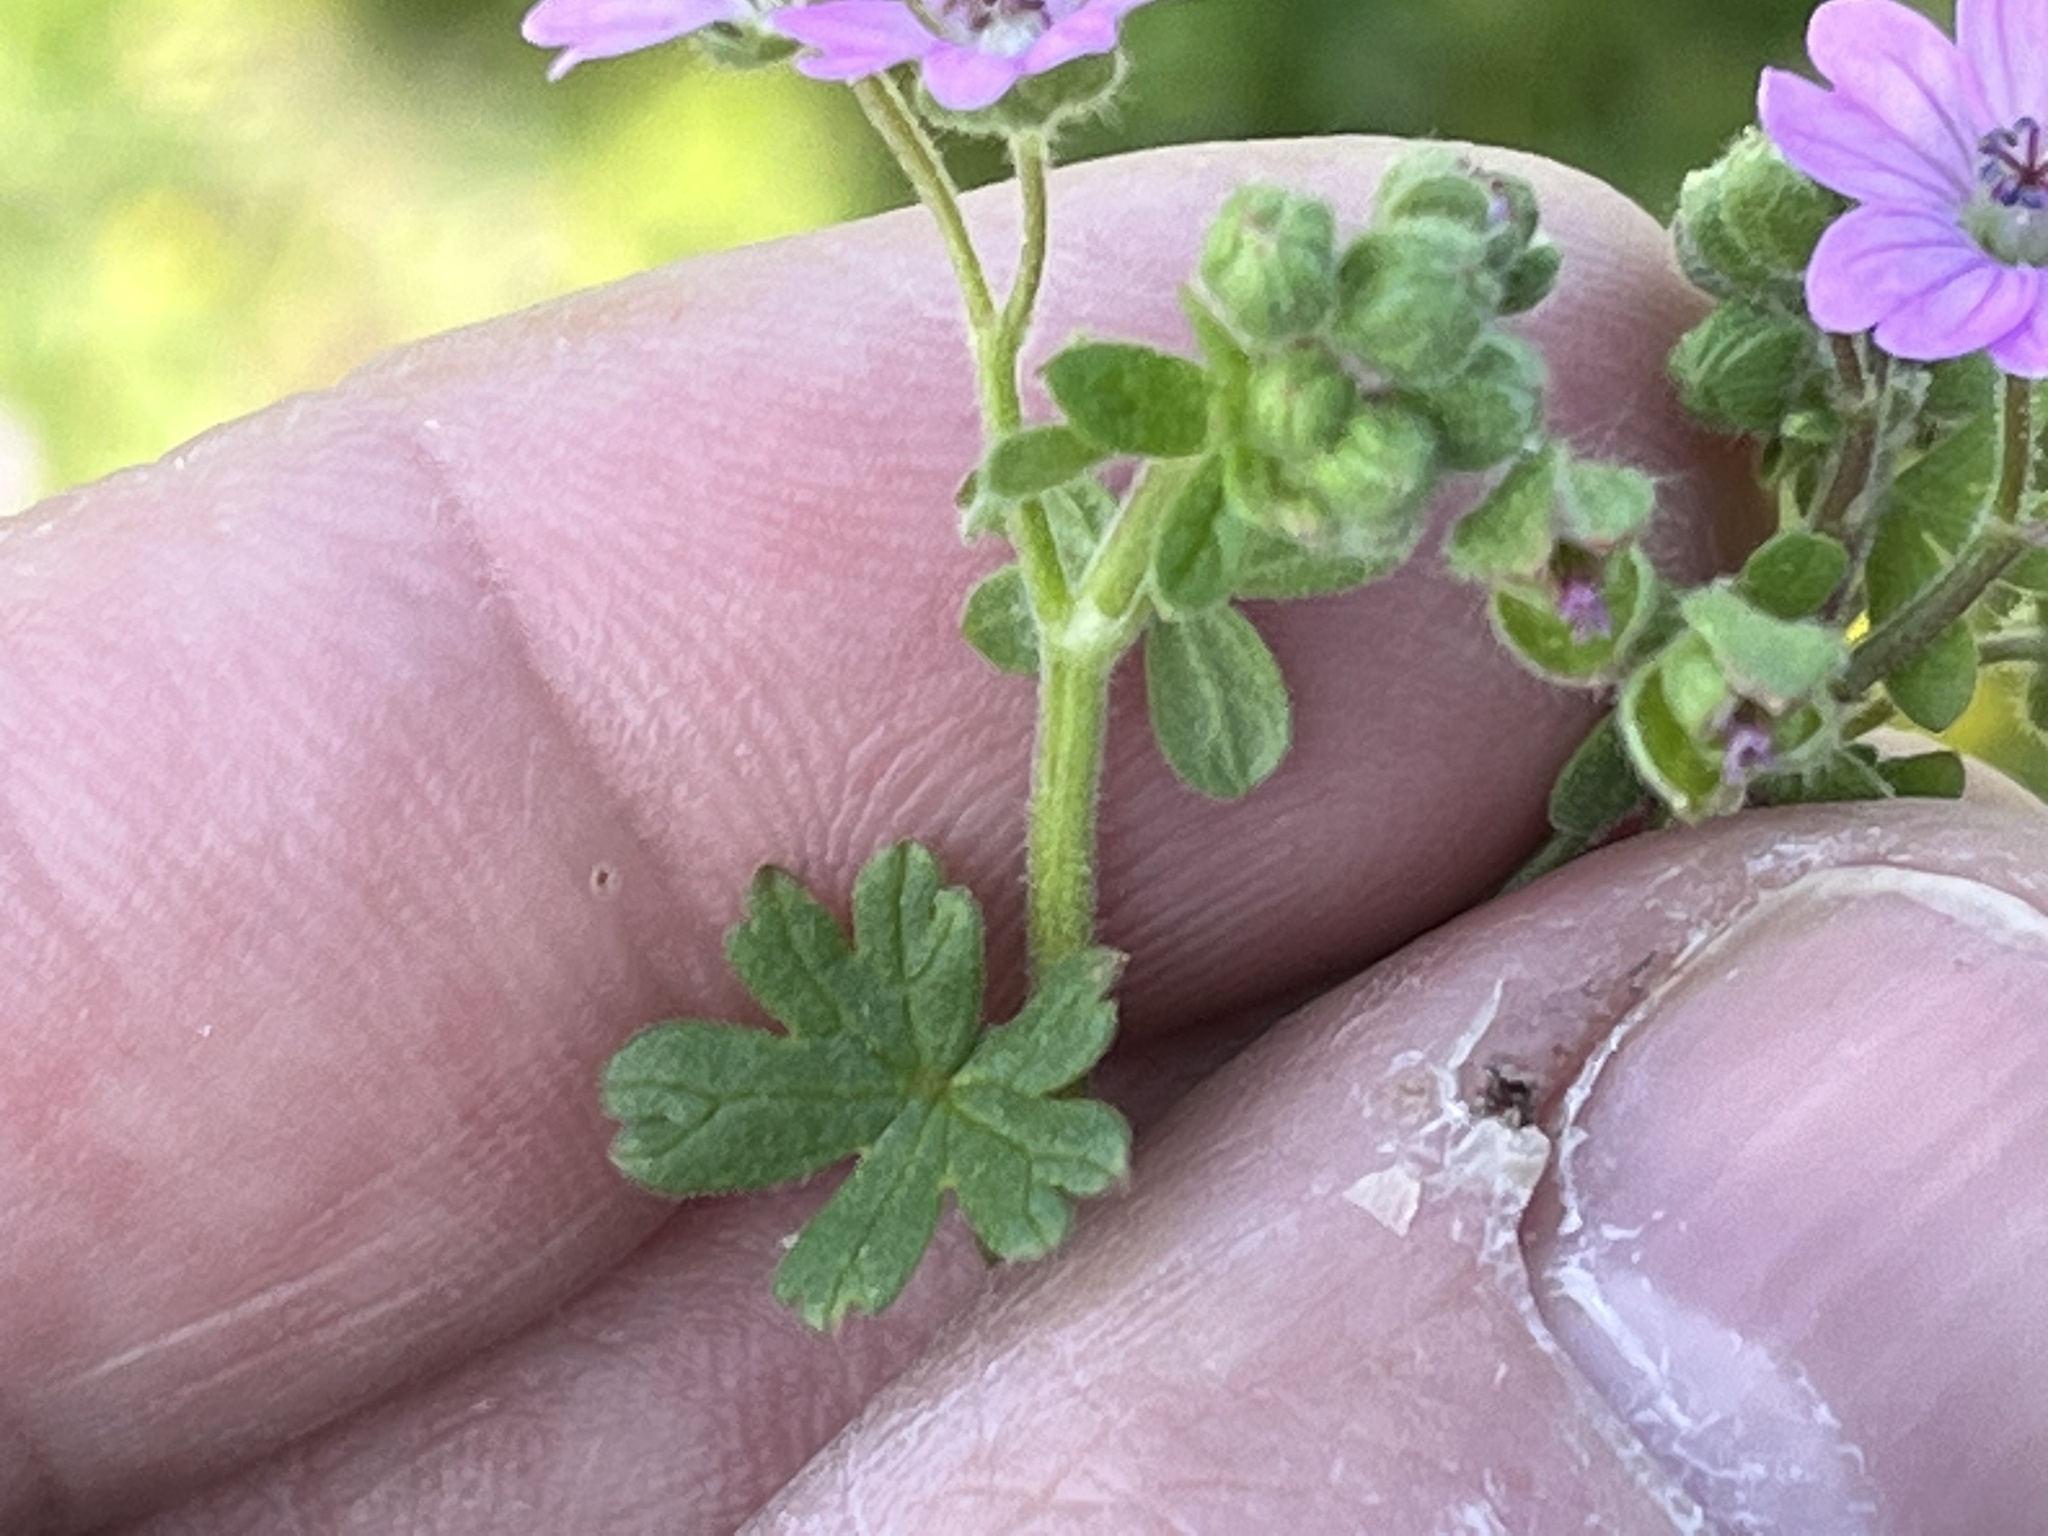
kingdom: Plantae
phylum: Tracheophyta
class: Magnoliopsida
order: Geraniales
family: Geraniaceae
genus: Geranium
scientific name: Geranium molle
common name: Dove's-foot crane's-bill
